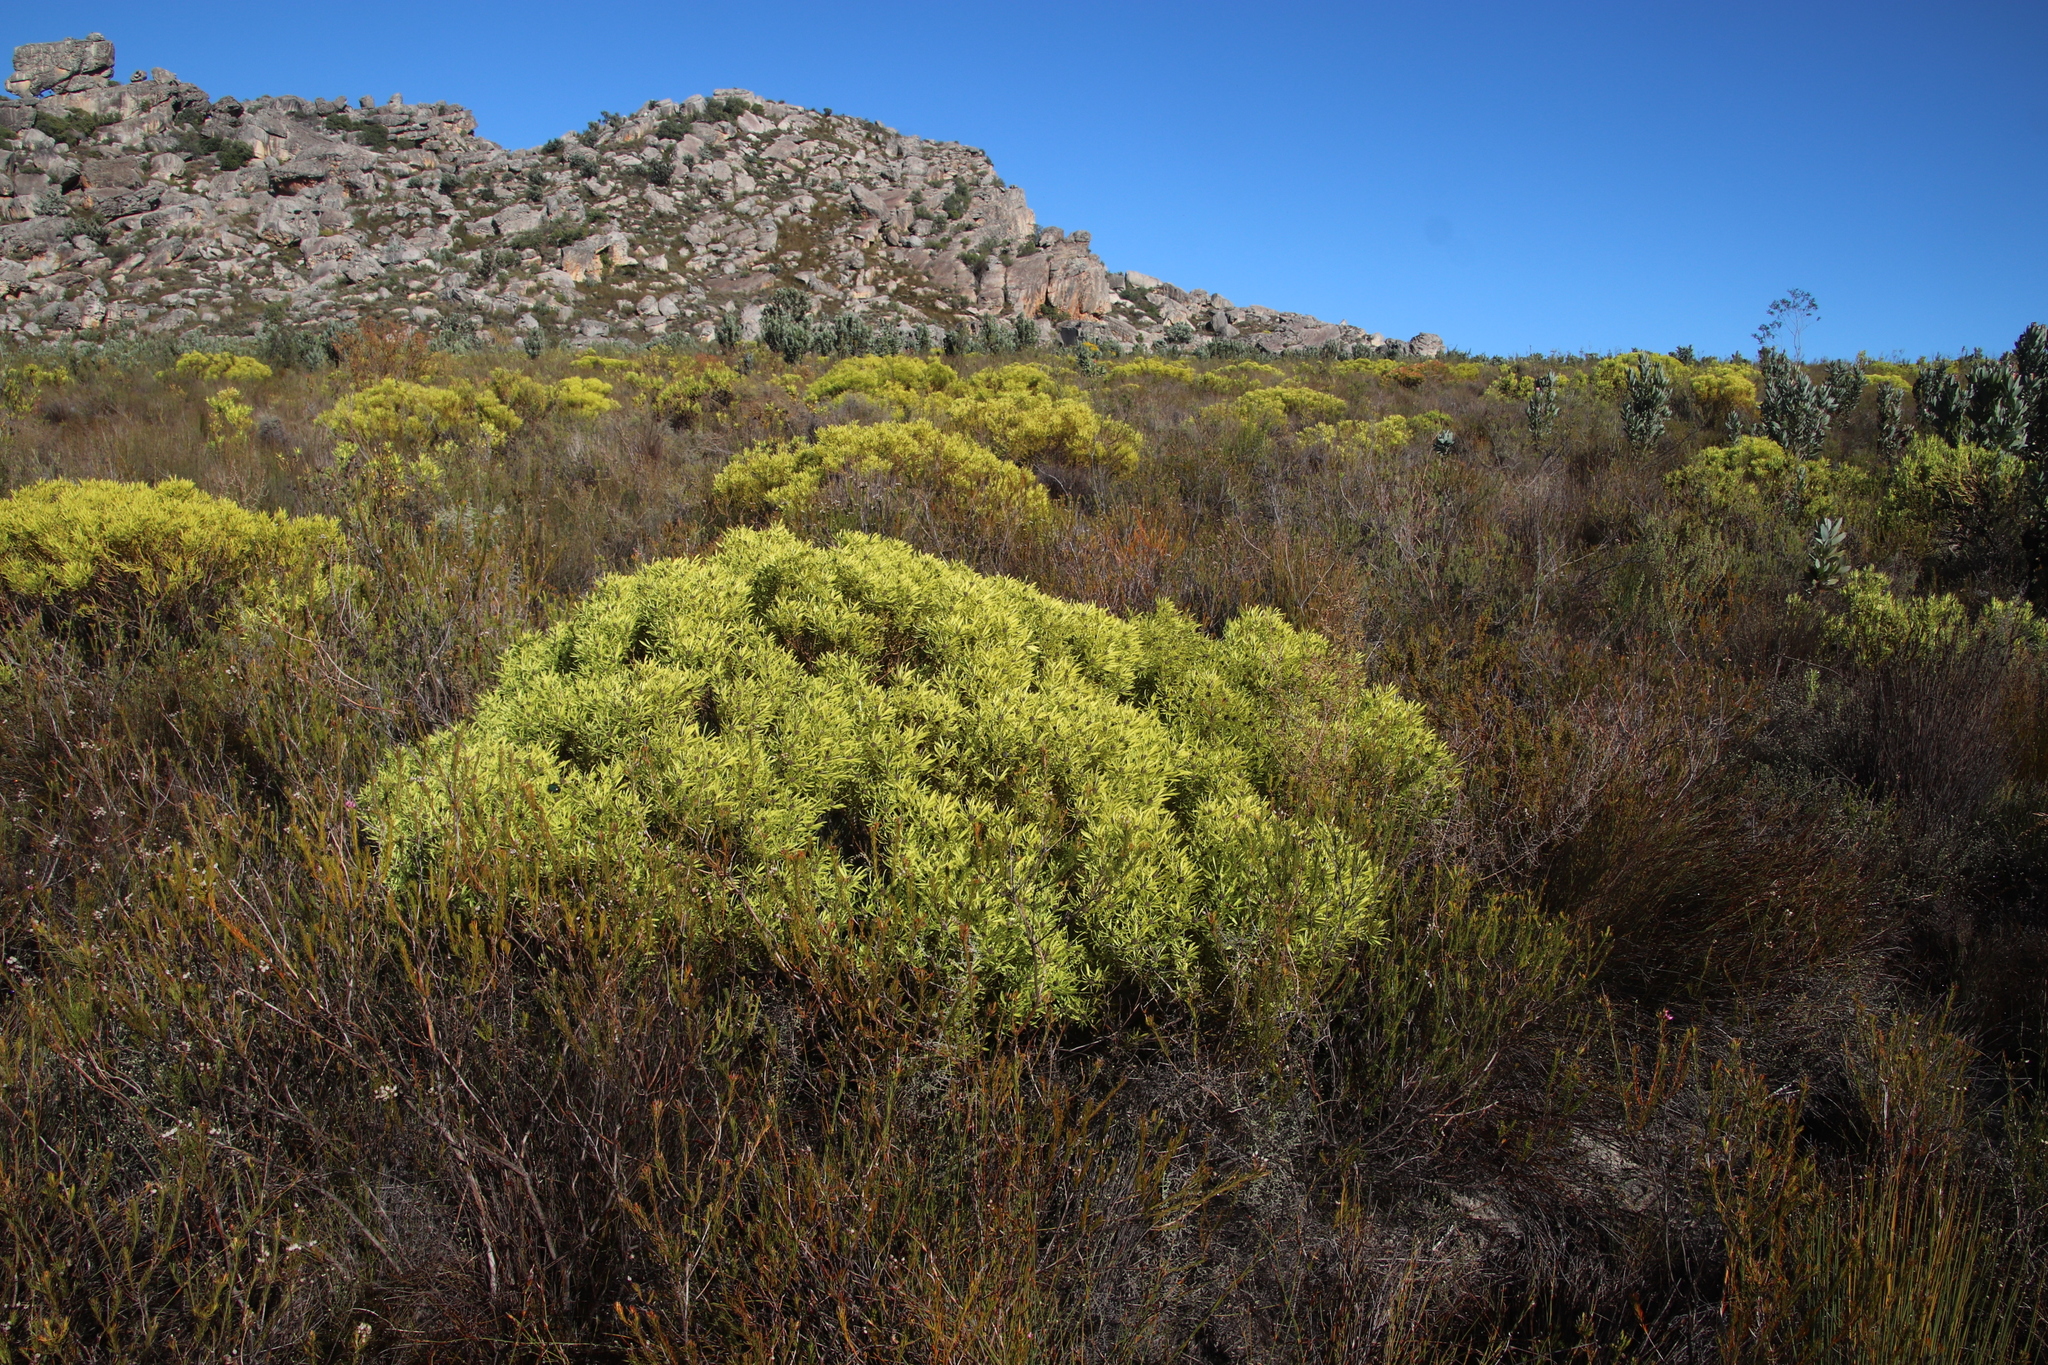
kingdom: Plantae
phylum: Tracheophyta
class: Magnoliopsida
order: Proteales
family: Proteaceae
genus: Leucadendron
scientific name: Leucadendron salignum
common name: Common sunshine conebush
